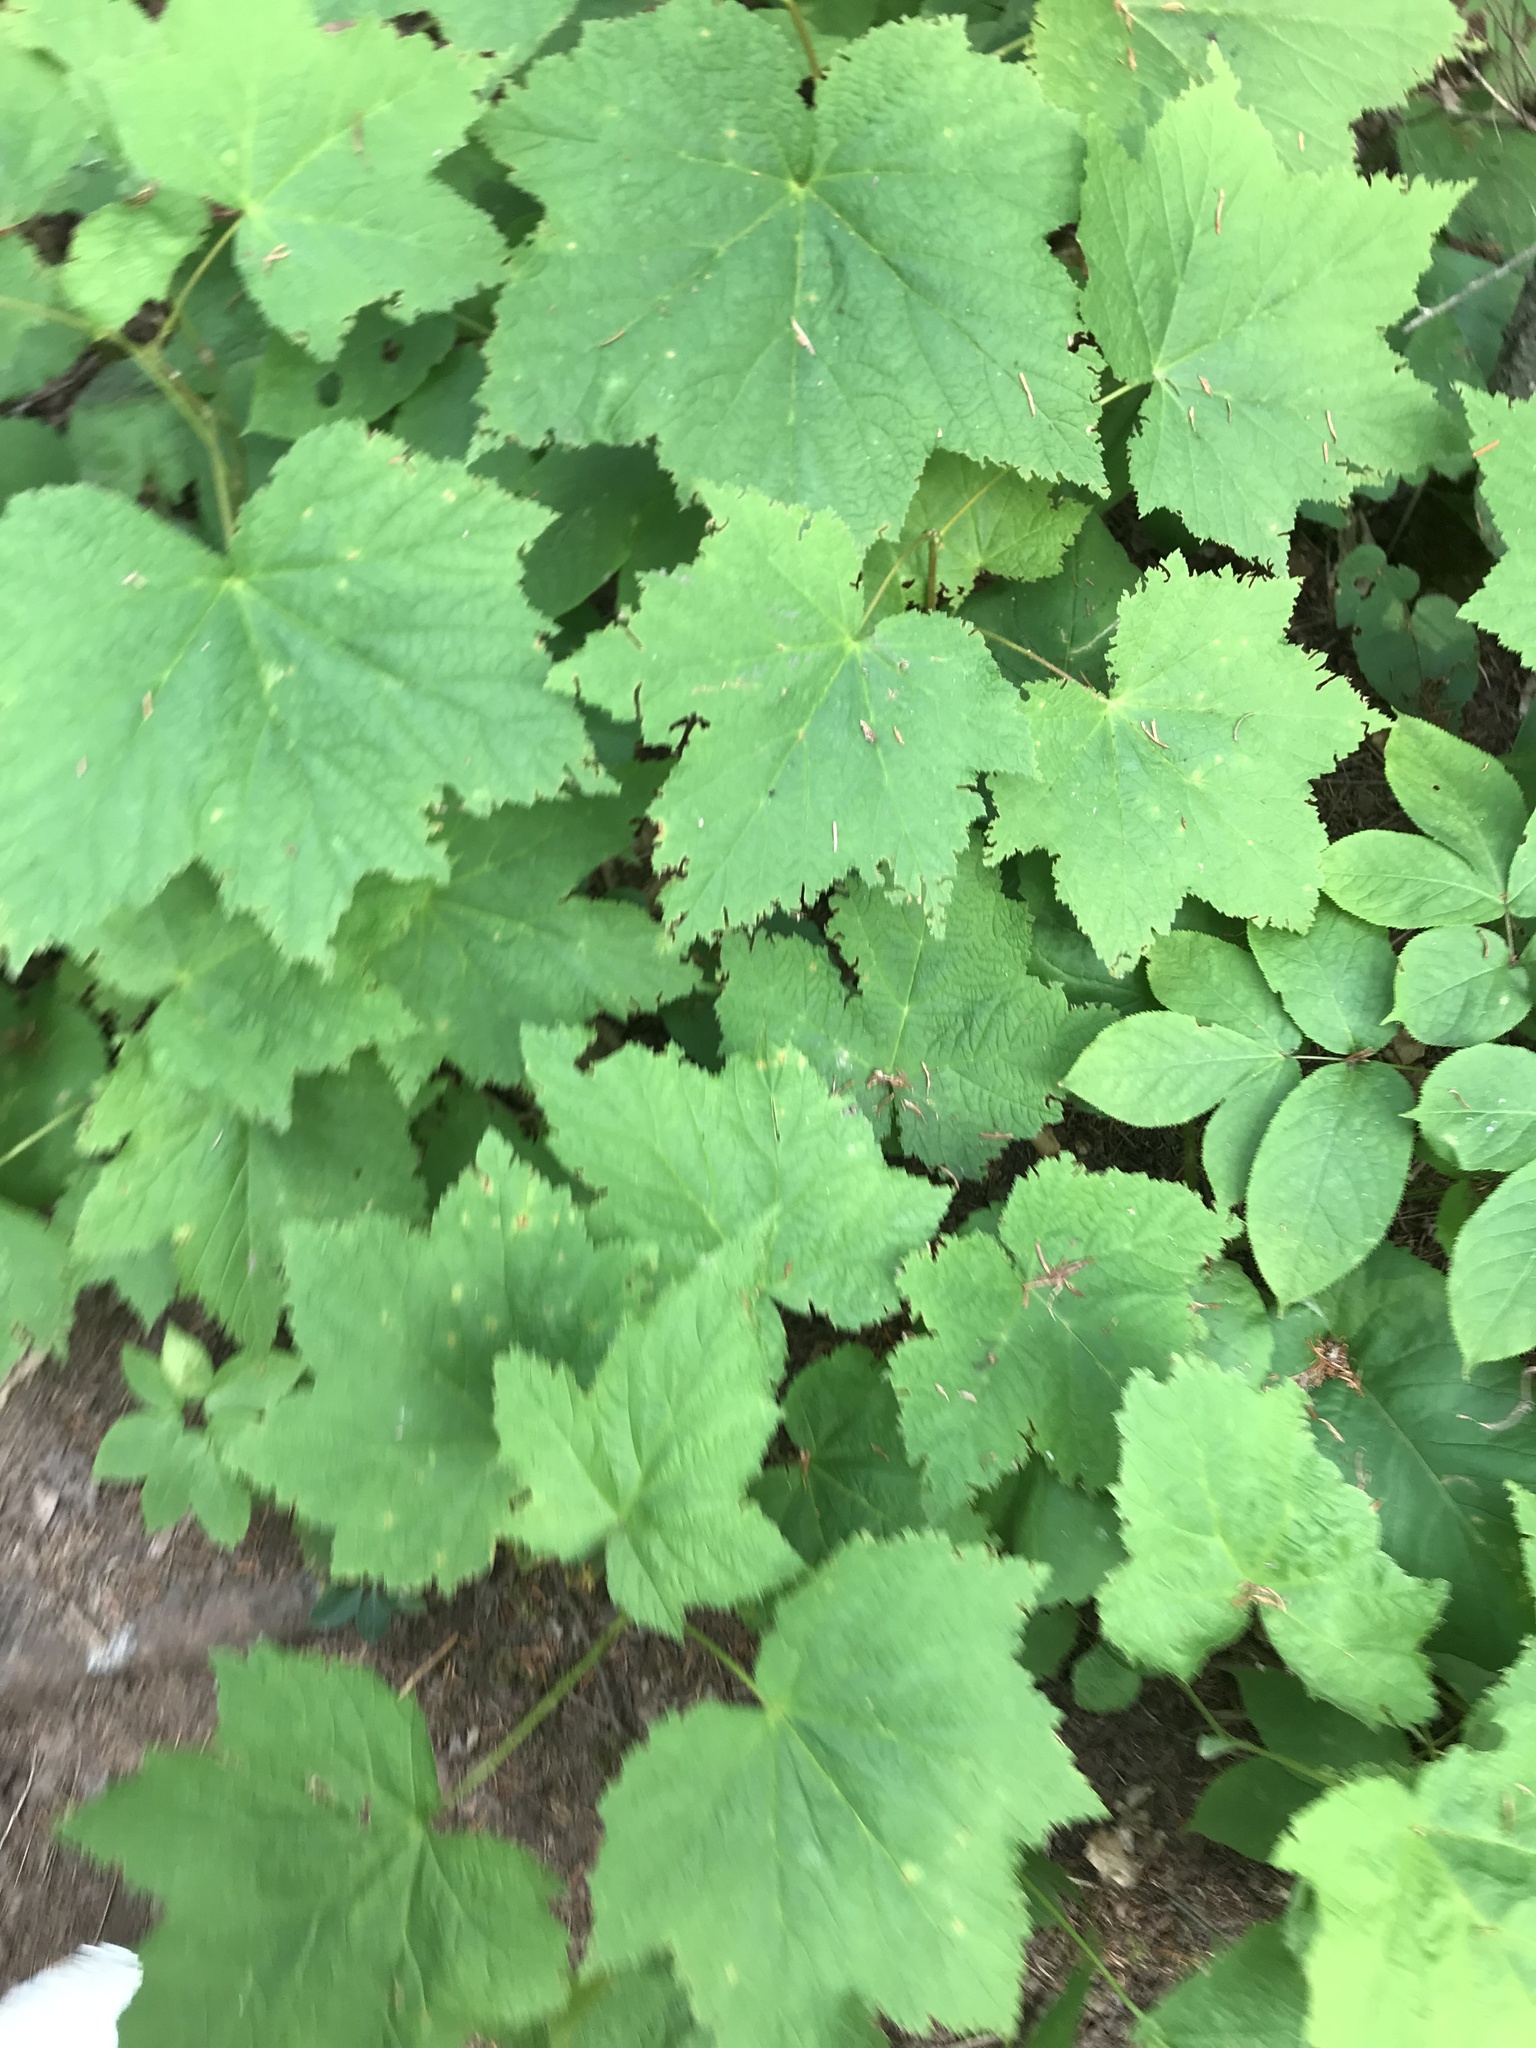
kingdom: Plantae
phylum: Tracheophyta
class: Magnoliopsida
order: Rosales
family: Rosaceae
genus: Rubus
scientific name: Rubus parviflorus
